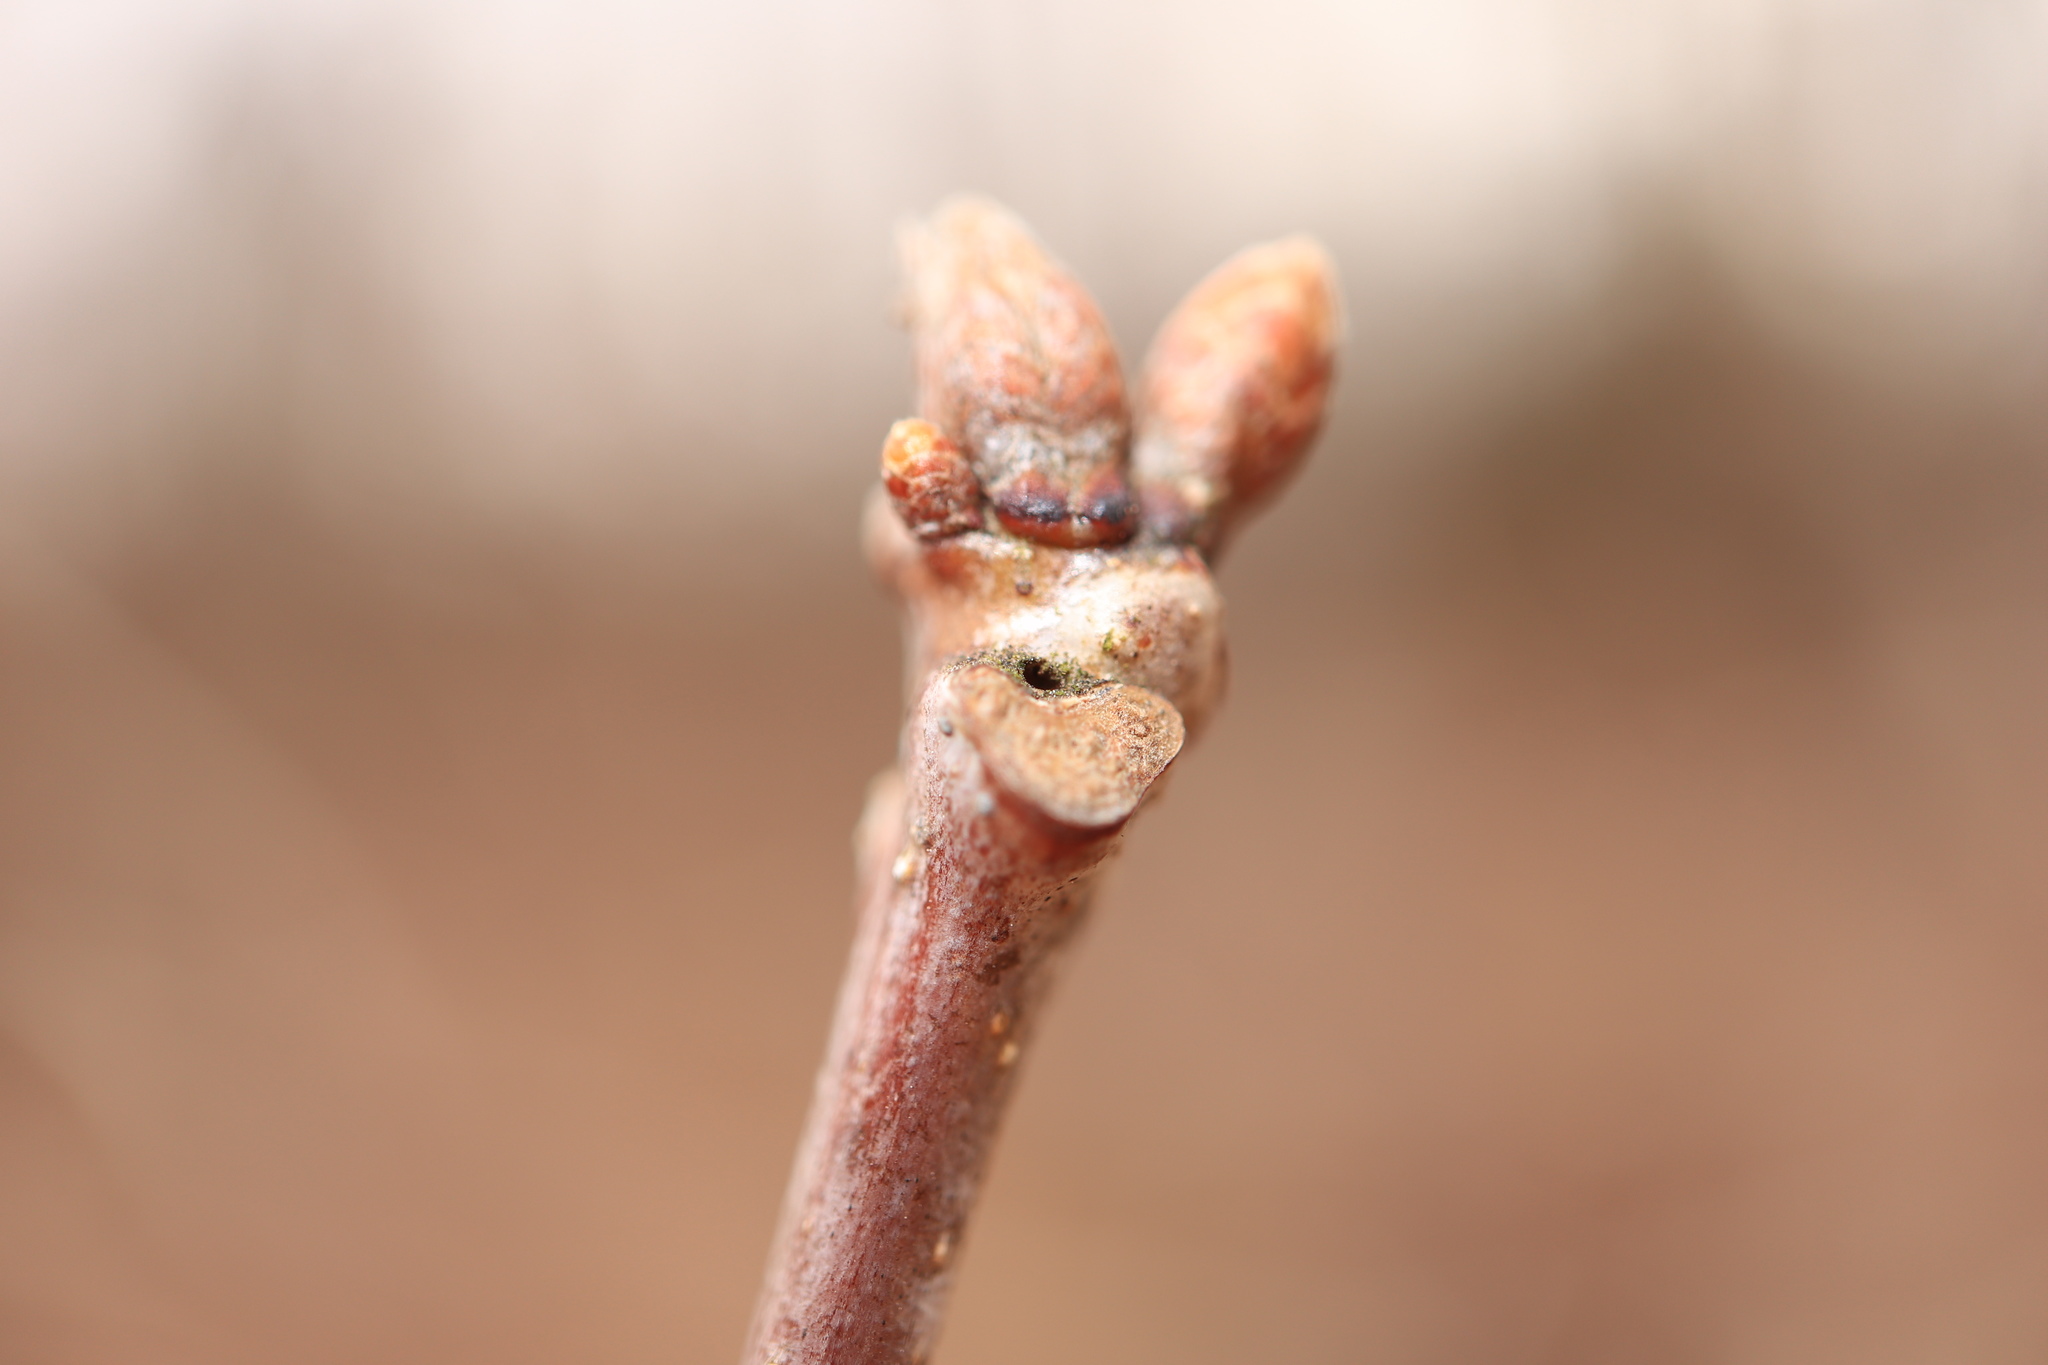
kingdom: Animalia
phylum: Arthropoda
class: Insecta
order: Hymenoptera
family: Cynipidae
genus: Neuroterus
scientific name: Neuroterus
